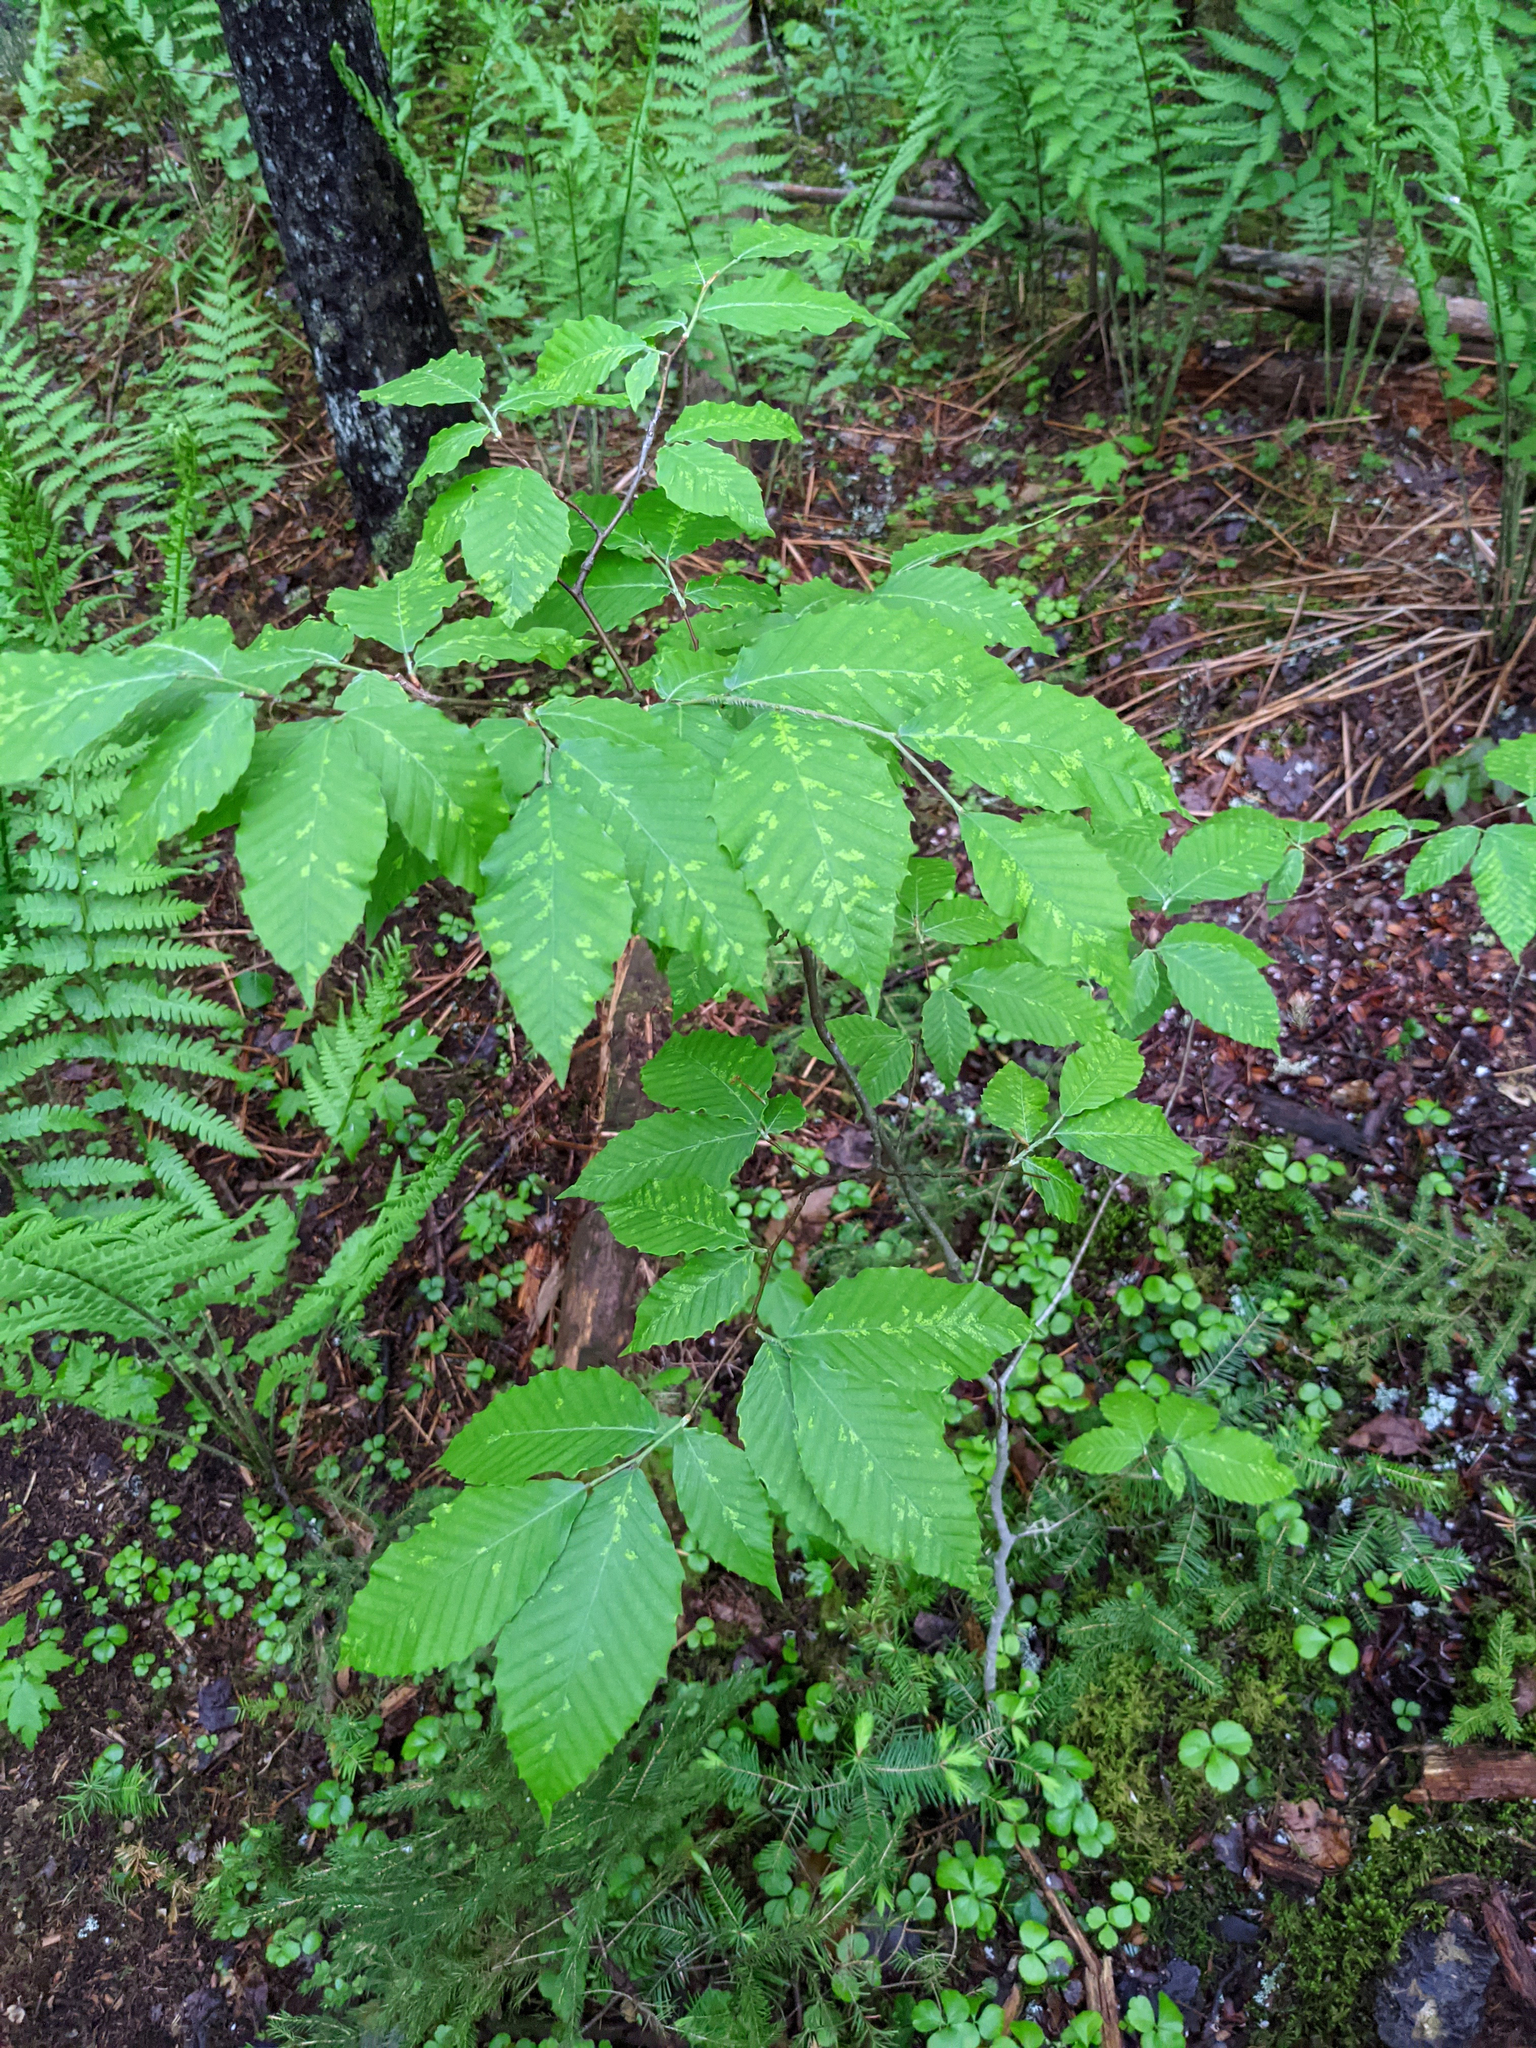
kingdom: Plantae
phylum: Tracheophyta
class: Magnoliopsida
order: Fagales
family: Fagaceae
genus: Fagus
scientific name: Fagus grandifolia
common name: American beech
